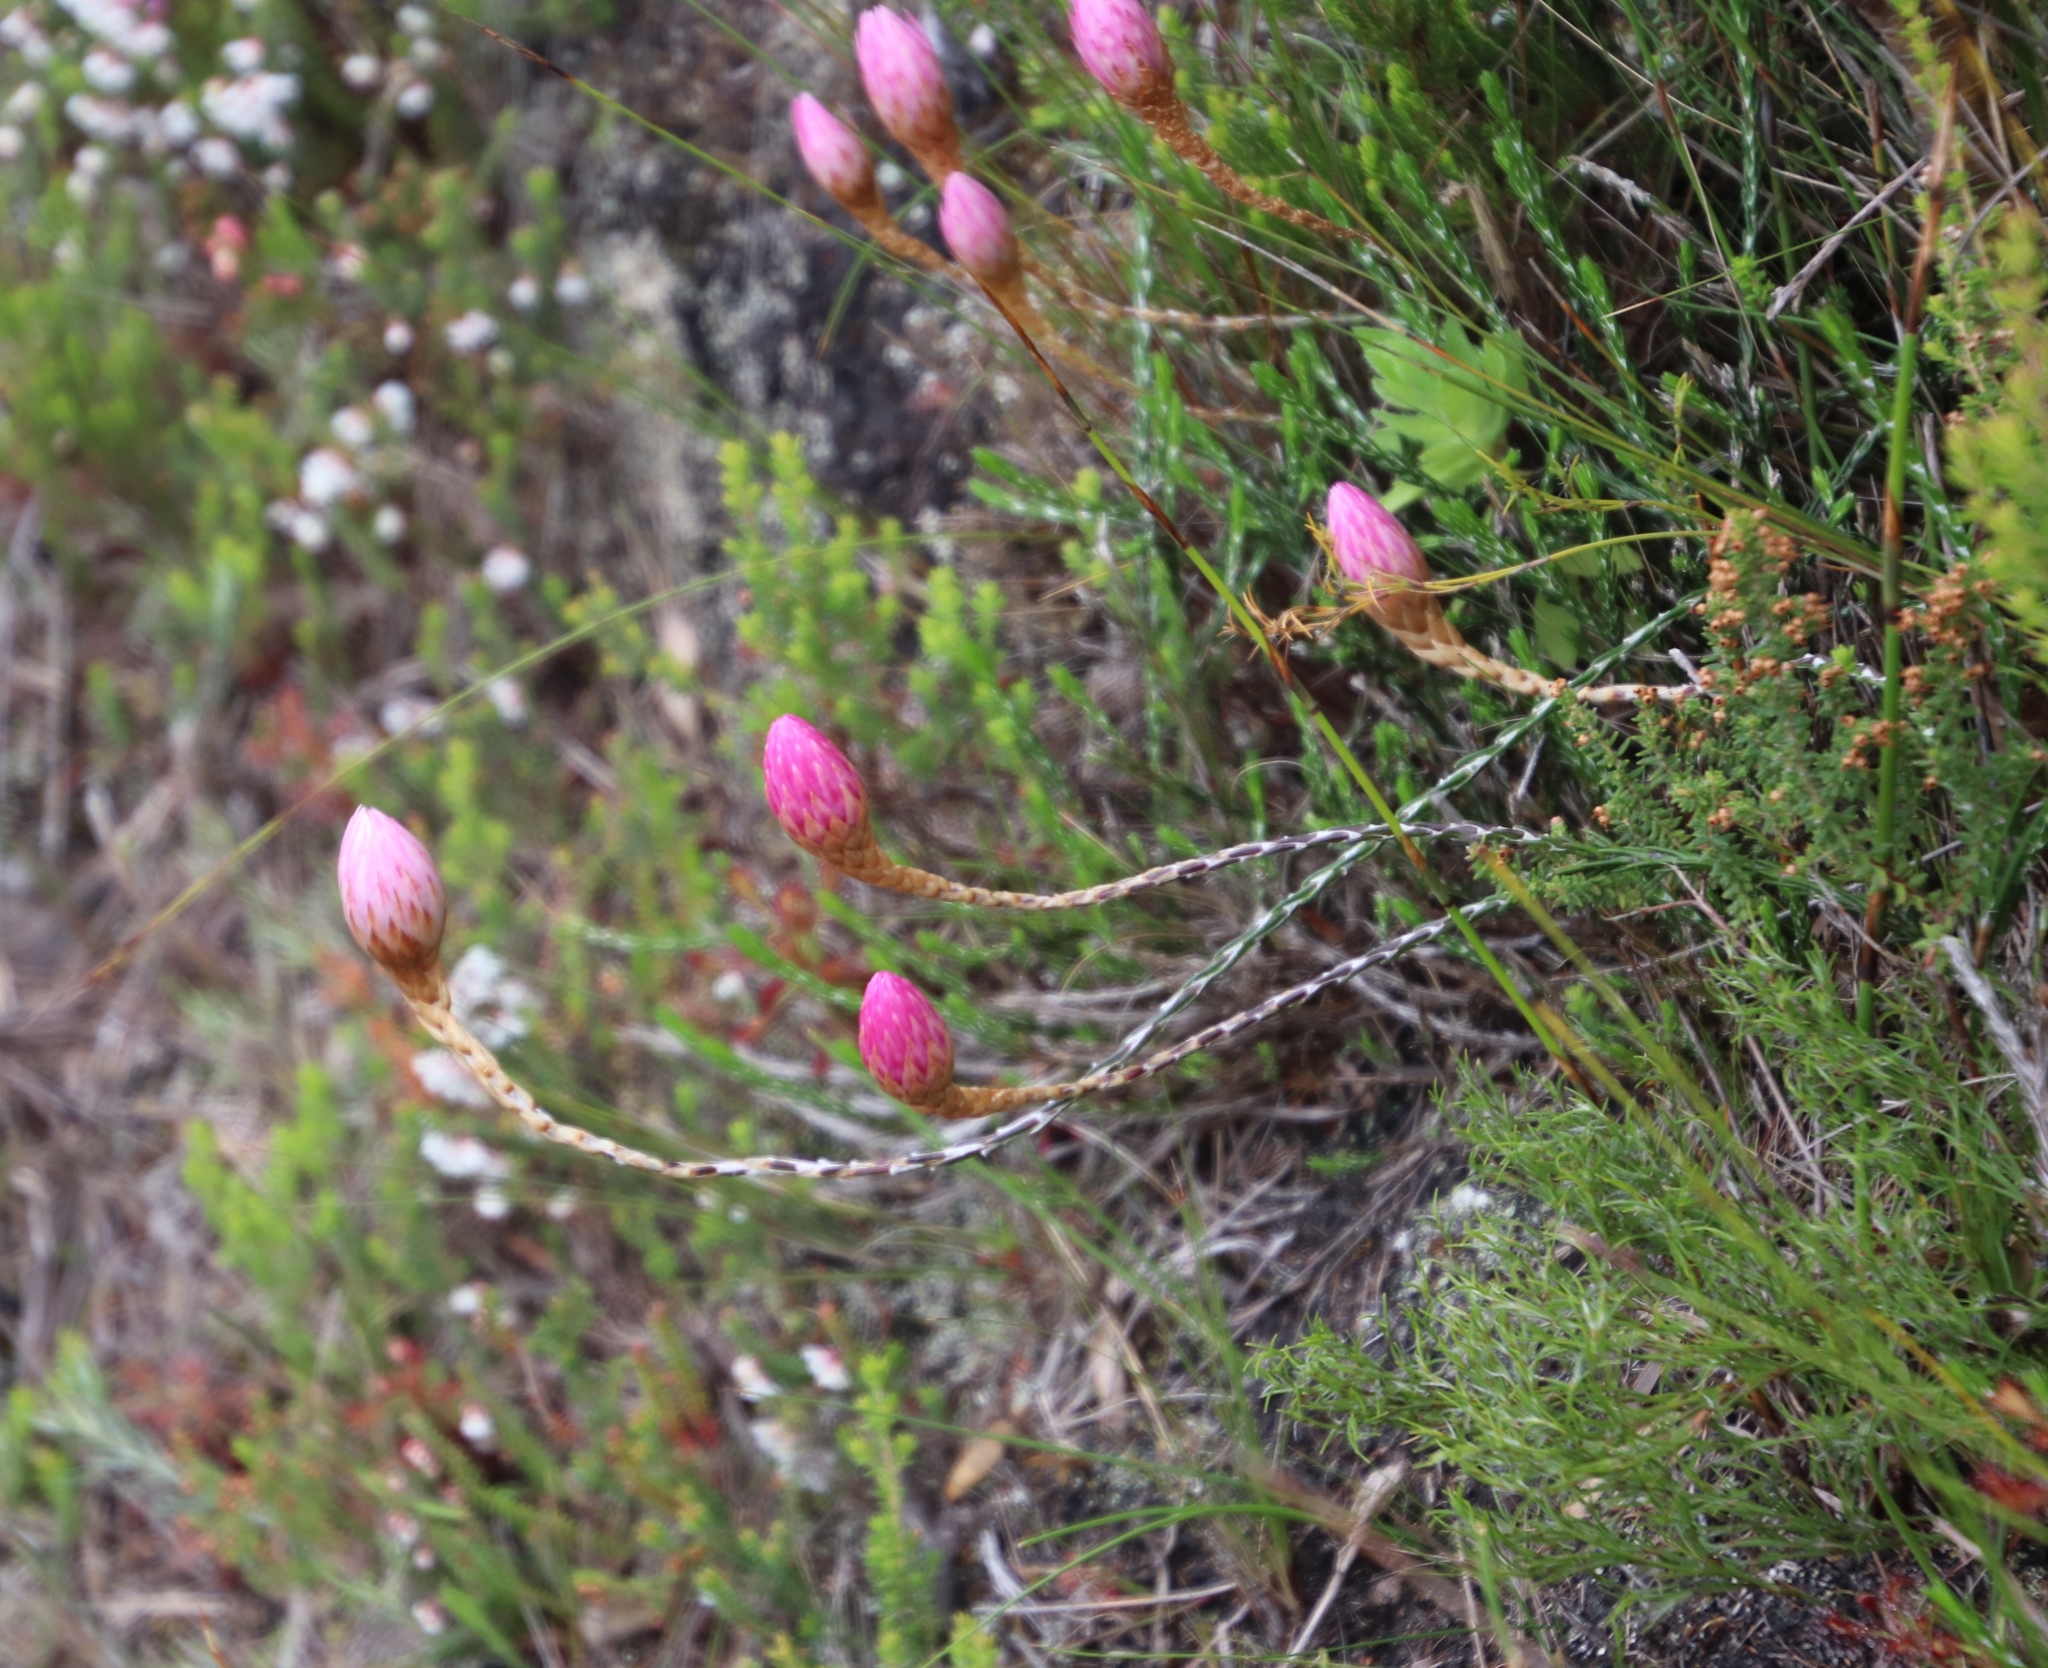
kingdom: Plantae
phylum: Tracheophyta
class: Magnoliopsida
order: Asterales
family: Asteraceae
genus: Edmondia
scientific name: Edmondia pinifolia
